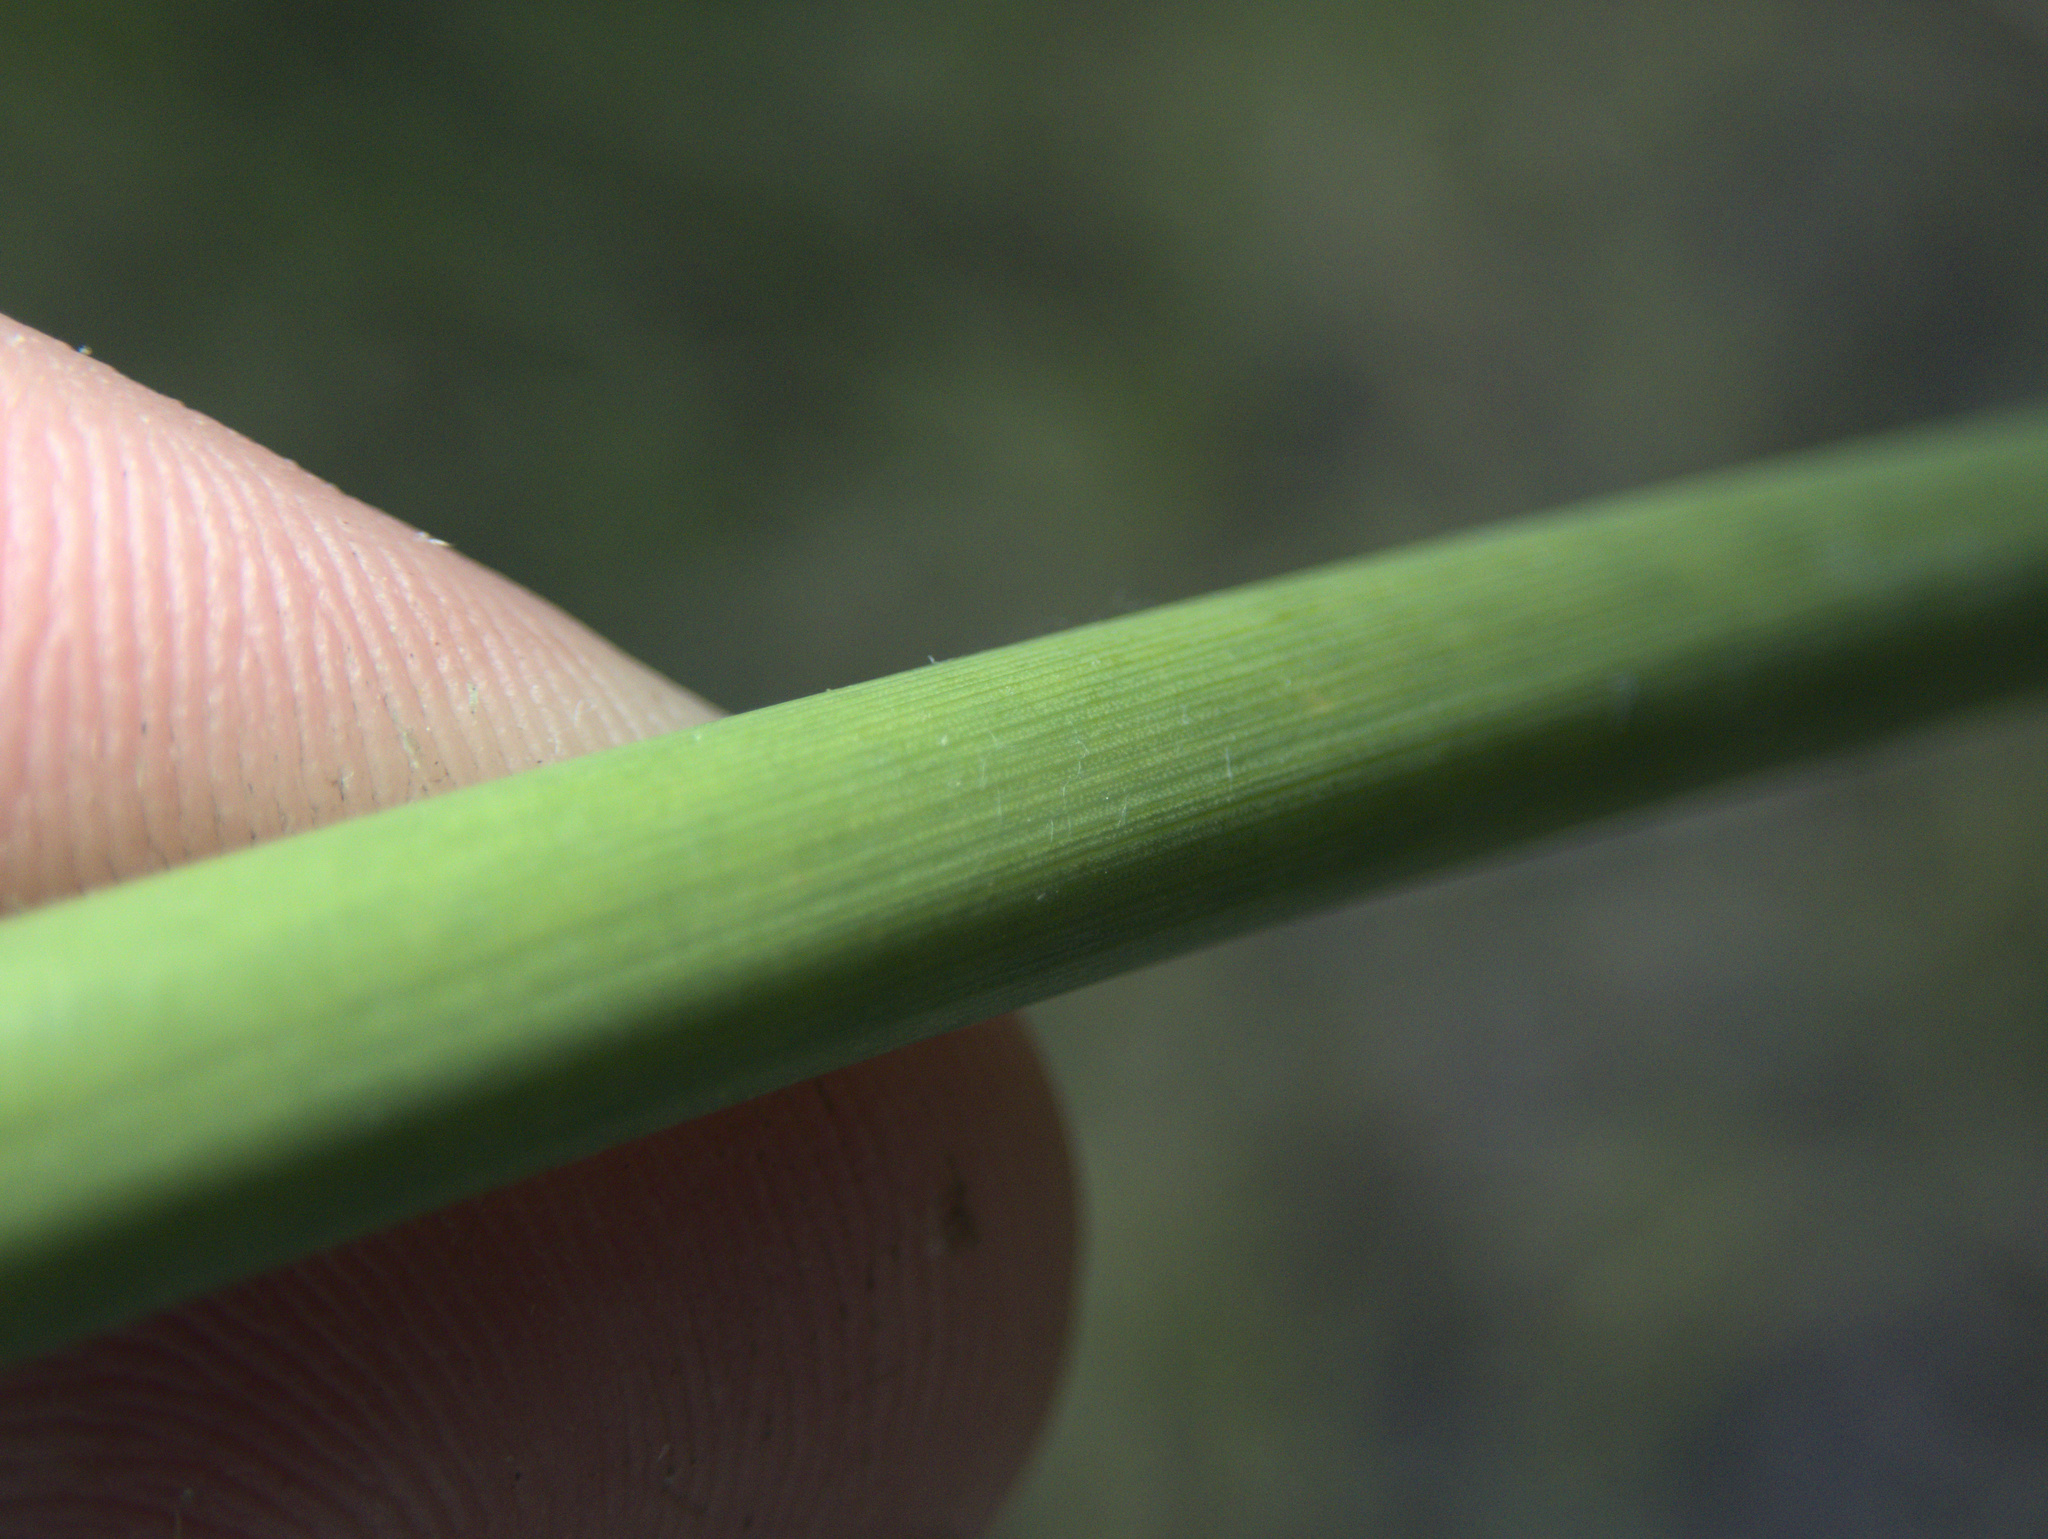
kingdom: Plantae
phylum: Tracheophyta
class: Liliopsida
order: Poales
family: Juncaceae
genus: Juncus
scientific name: Juncus pallidus
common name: Great soft-rush
